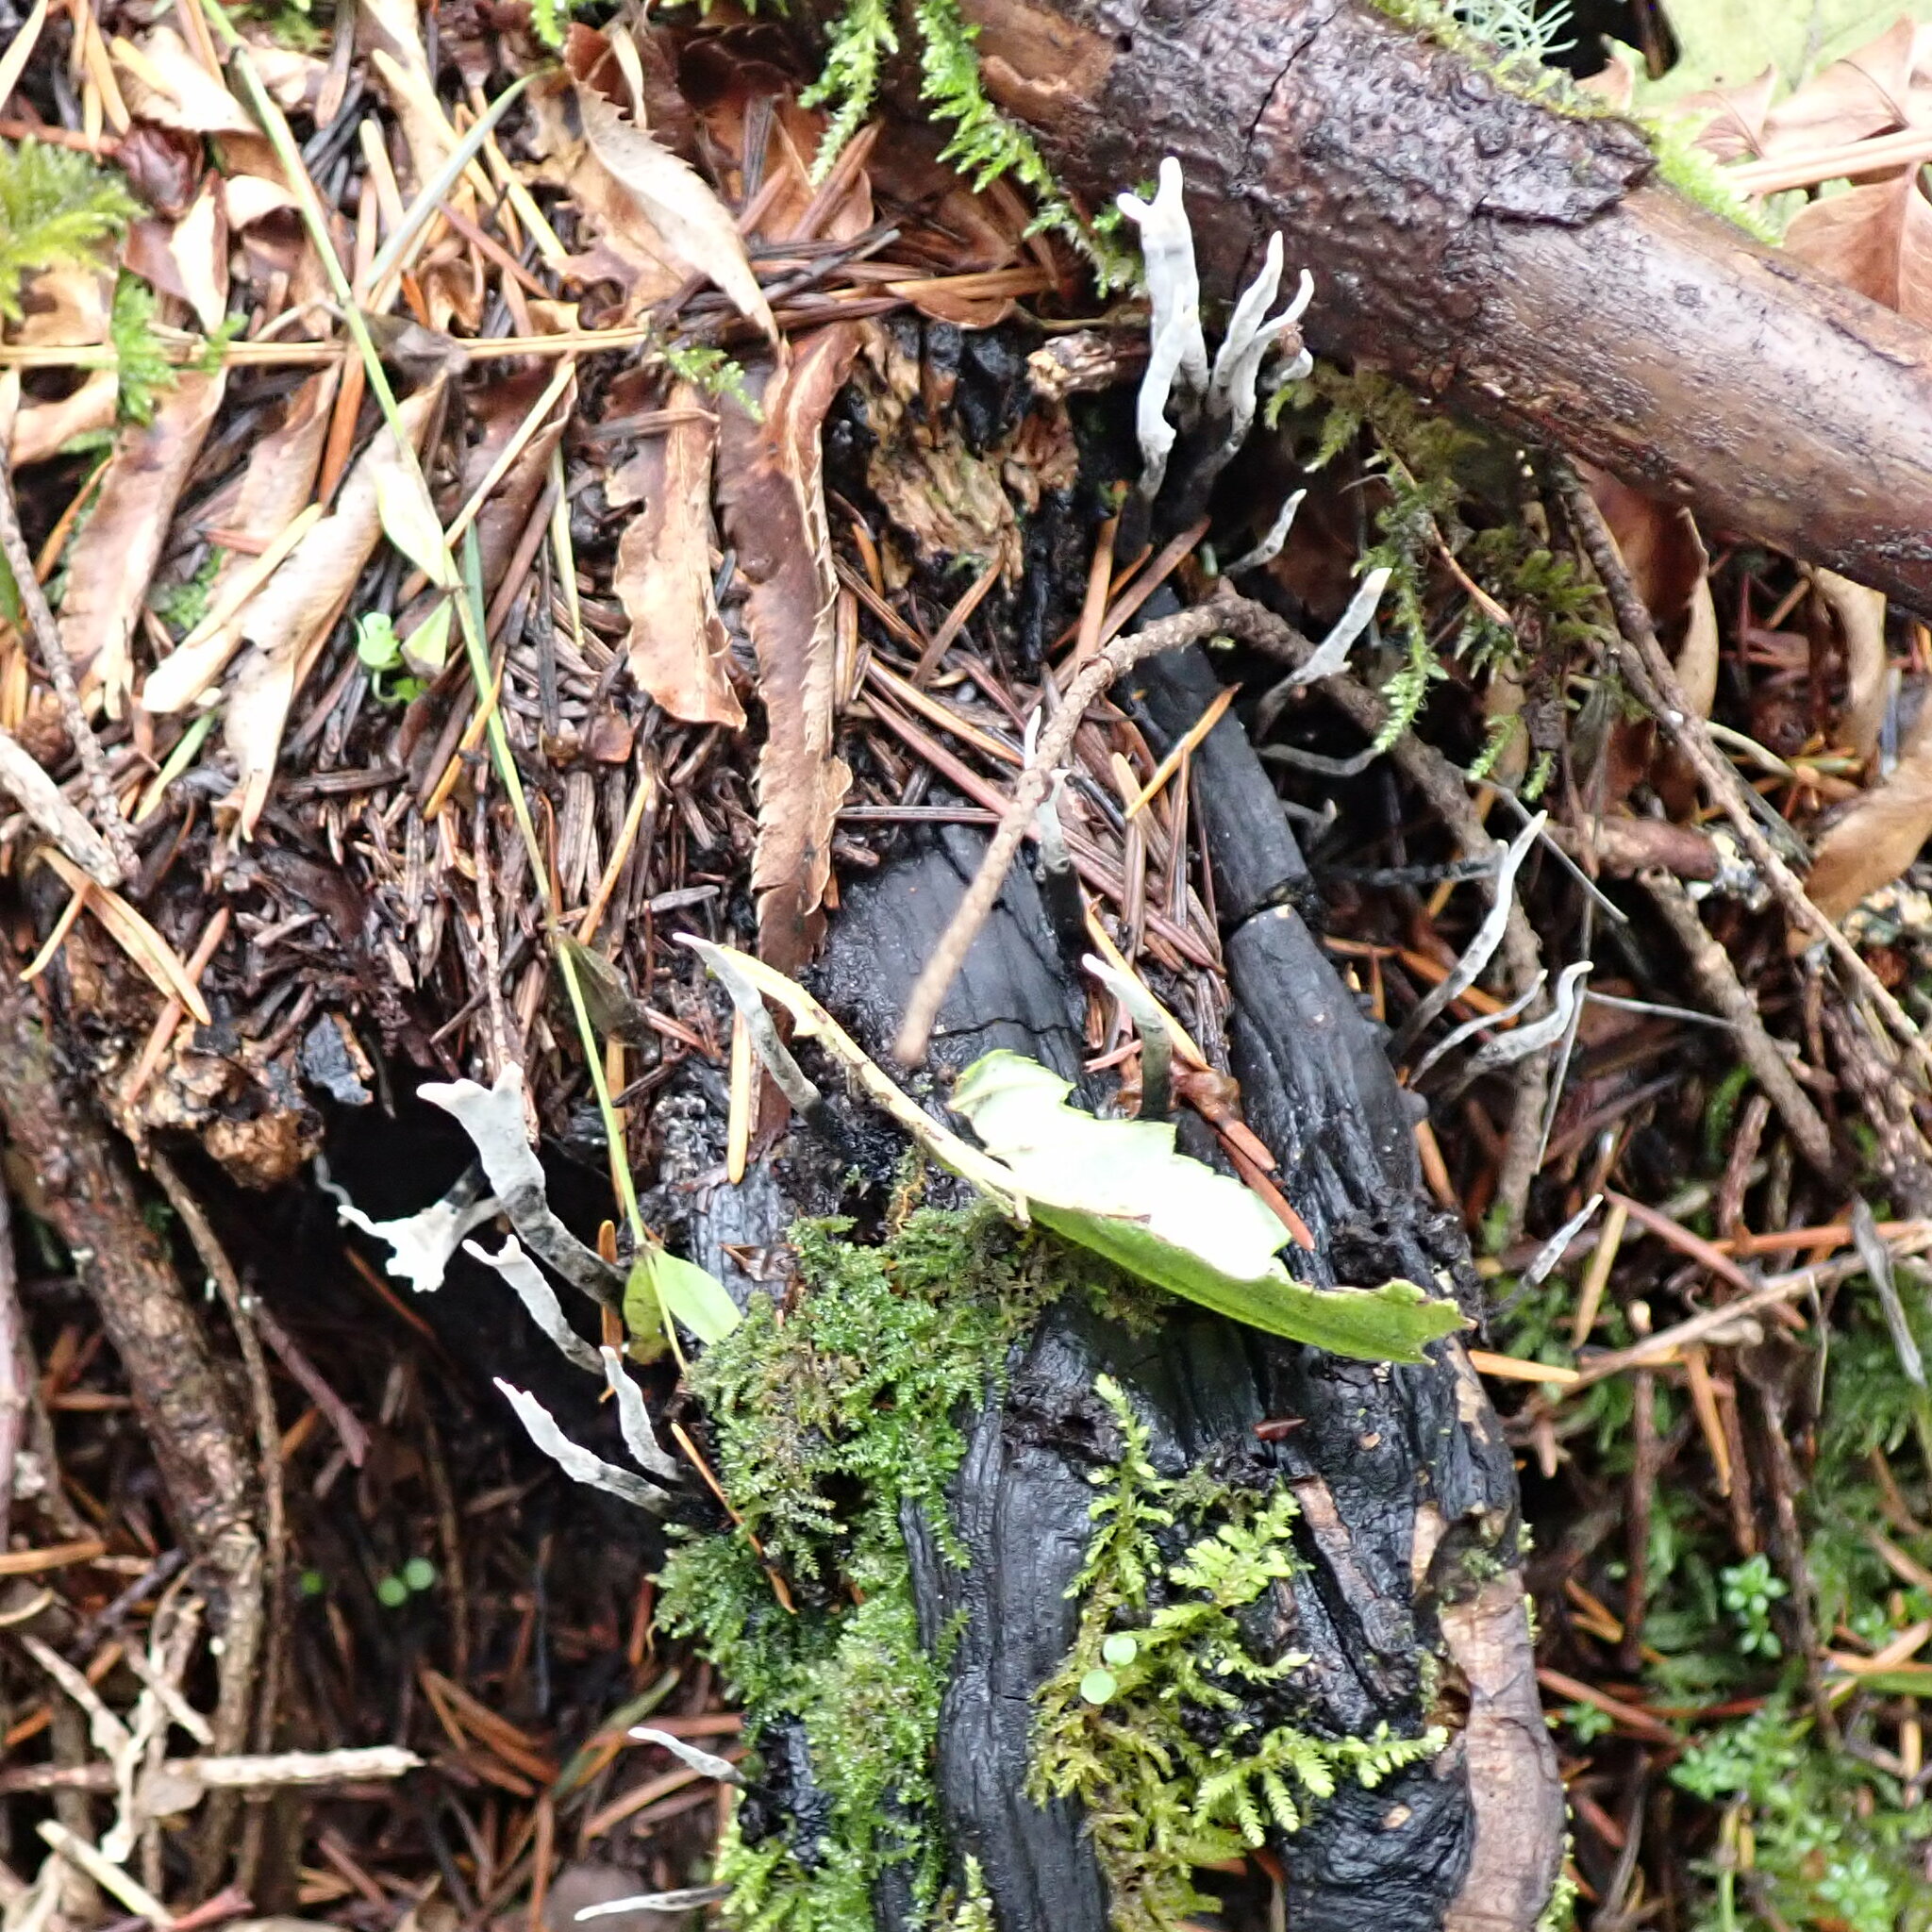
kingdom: Fungi
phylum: Ascomycota
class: Sordariomycetes
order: Xylariales
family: Xylariaceae
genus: Xylaria
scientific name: Xylaria hypoxylon
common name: Candle-snuff fungus
